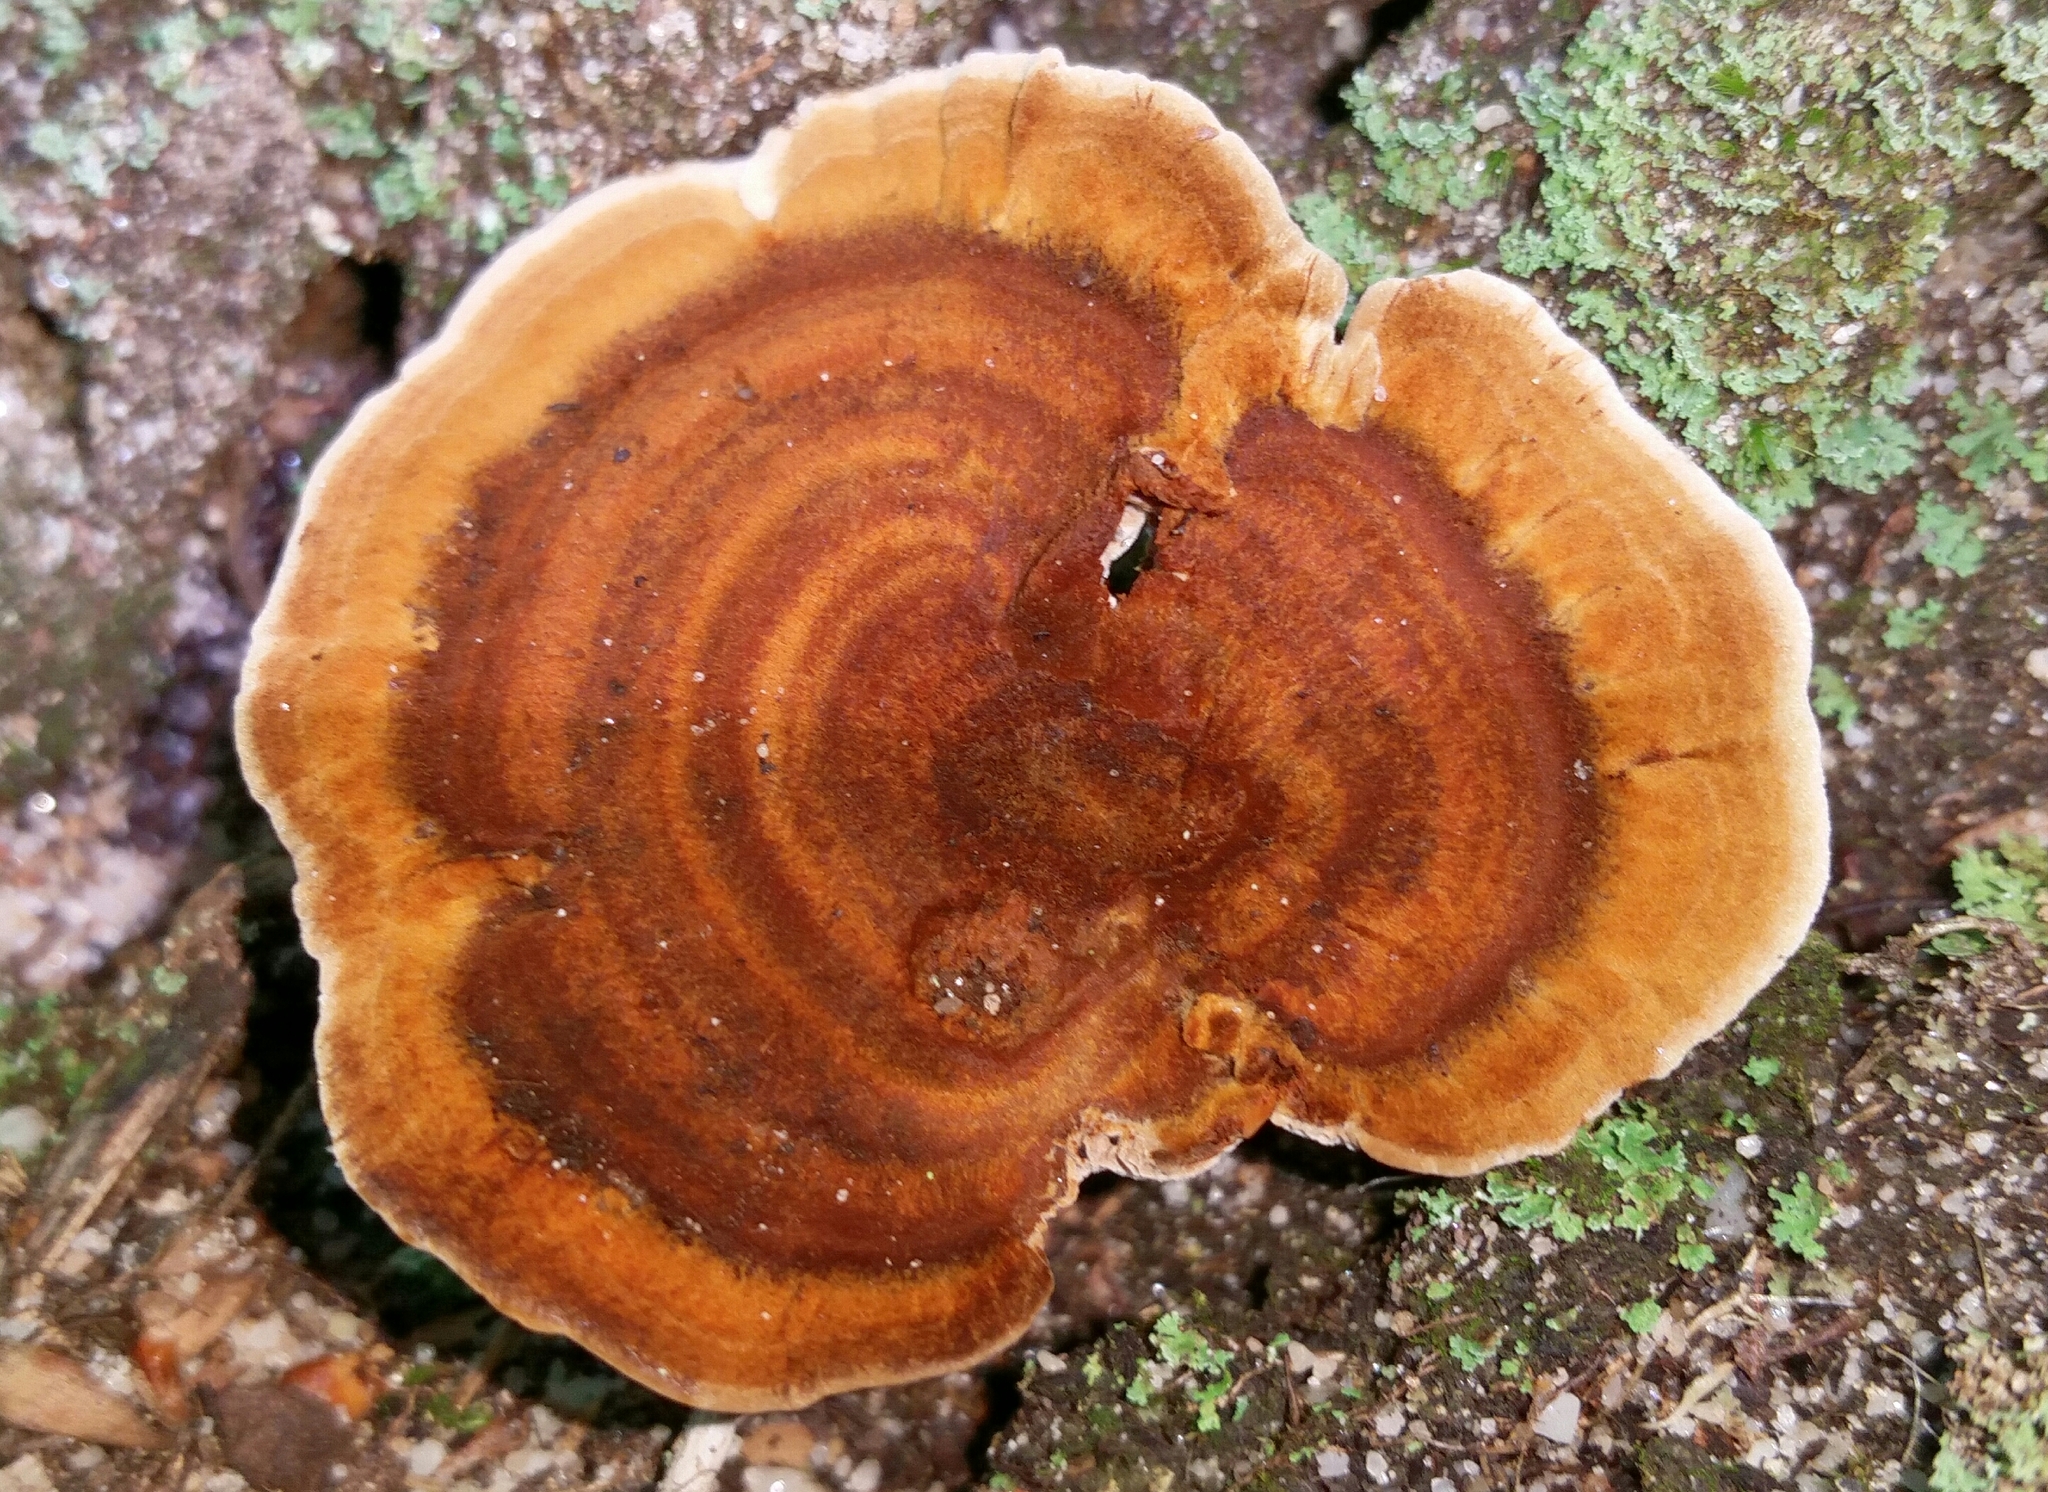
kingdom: Fungi
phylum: Basidiomycota
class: Agaricomycetes
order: Hymenochaetales
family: Hymenochaetaceae
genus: Coltricia
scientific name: Coltricia cinnamomea
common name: Shiny cinnamon polypore
